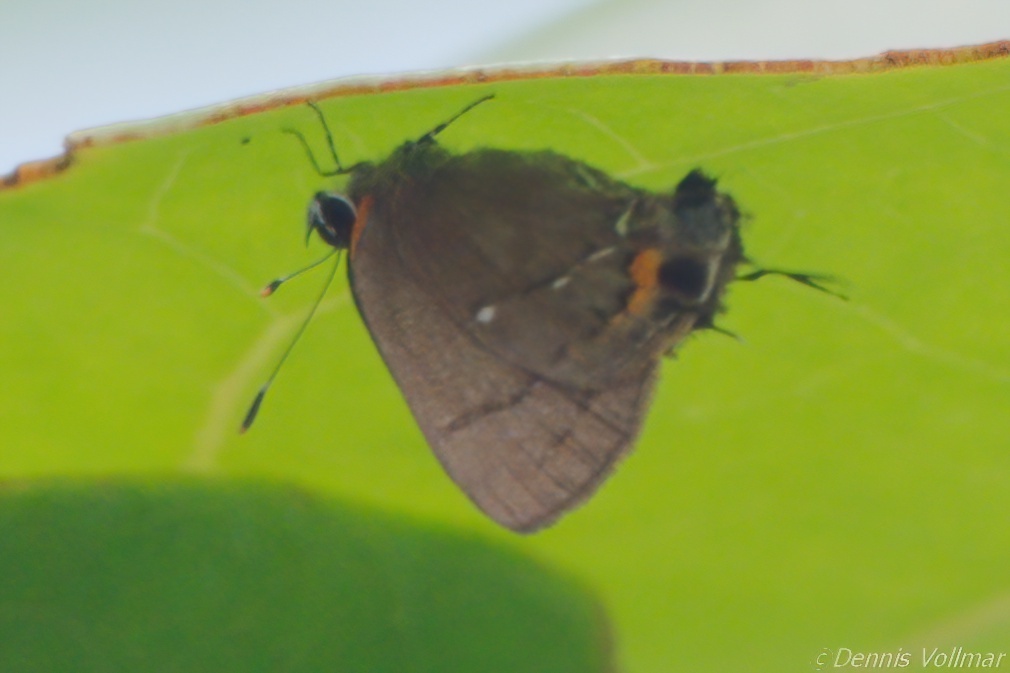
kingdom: Animalia
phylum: Arthropoda
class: Insecta
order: Lepidoptera
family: Lycaenidae
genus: Thecla
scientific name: Thecla angelia
